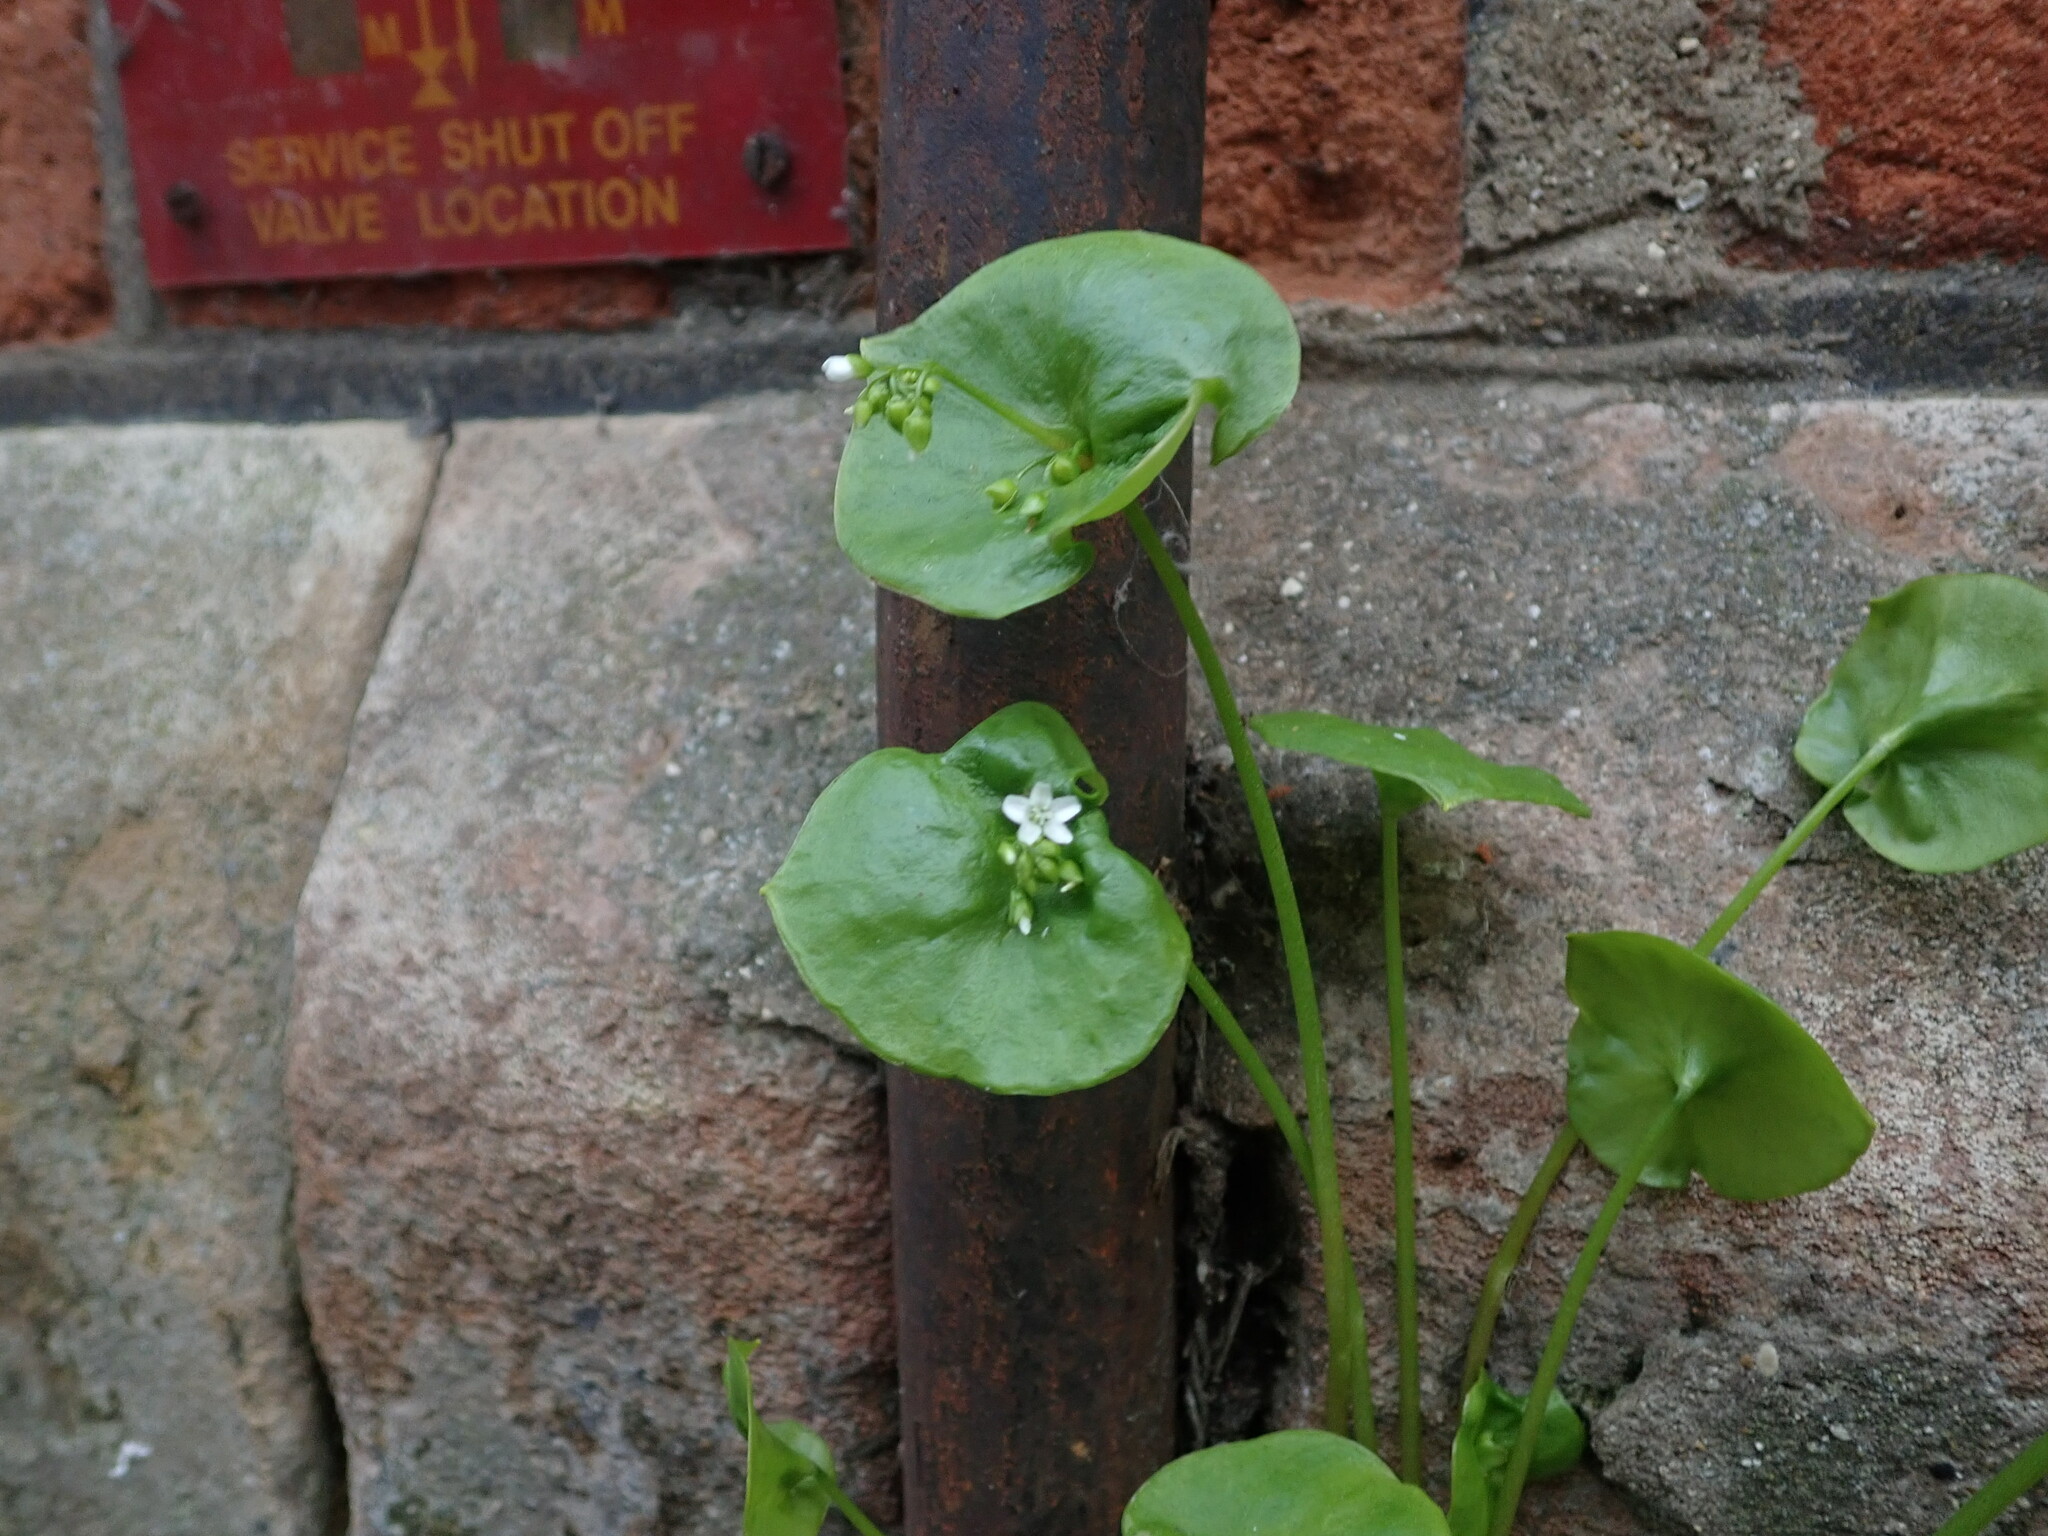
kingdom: Plantae
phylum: Tracheophyta
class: Magnoliopsida
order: Caryophyllales
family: Montiaceae
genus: Claytonia
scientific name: Claytonia perfoliata
